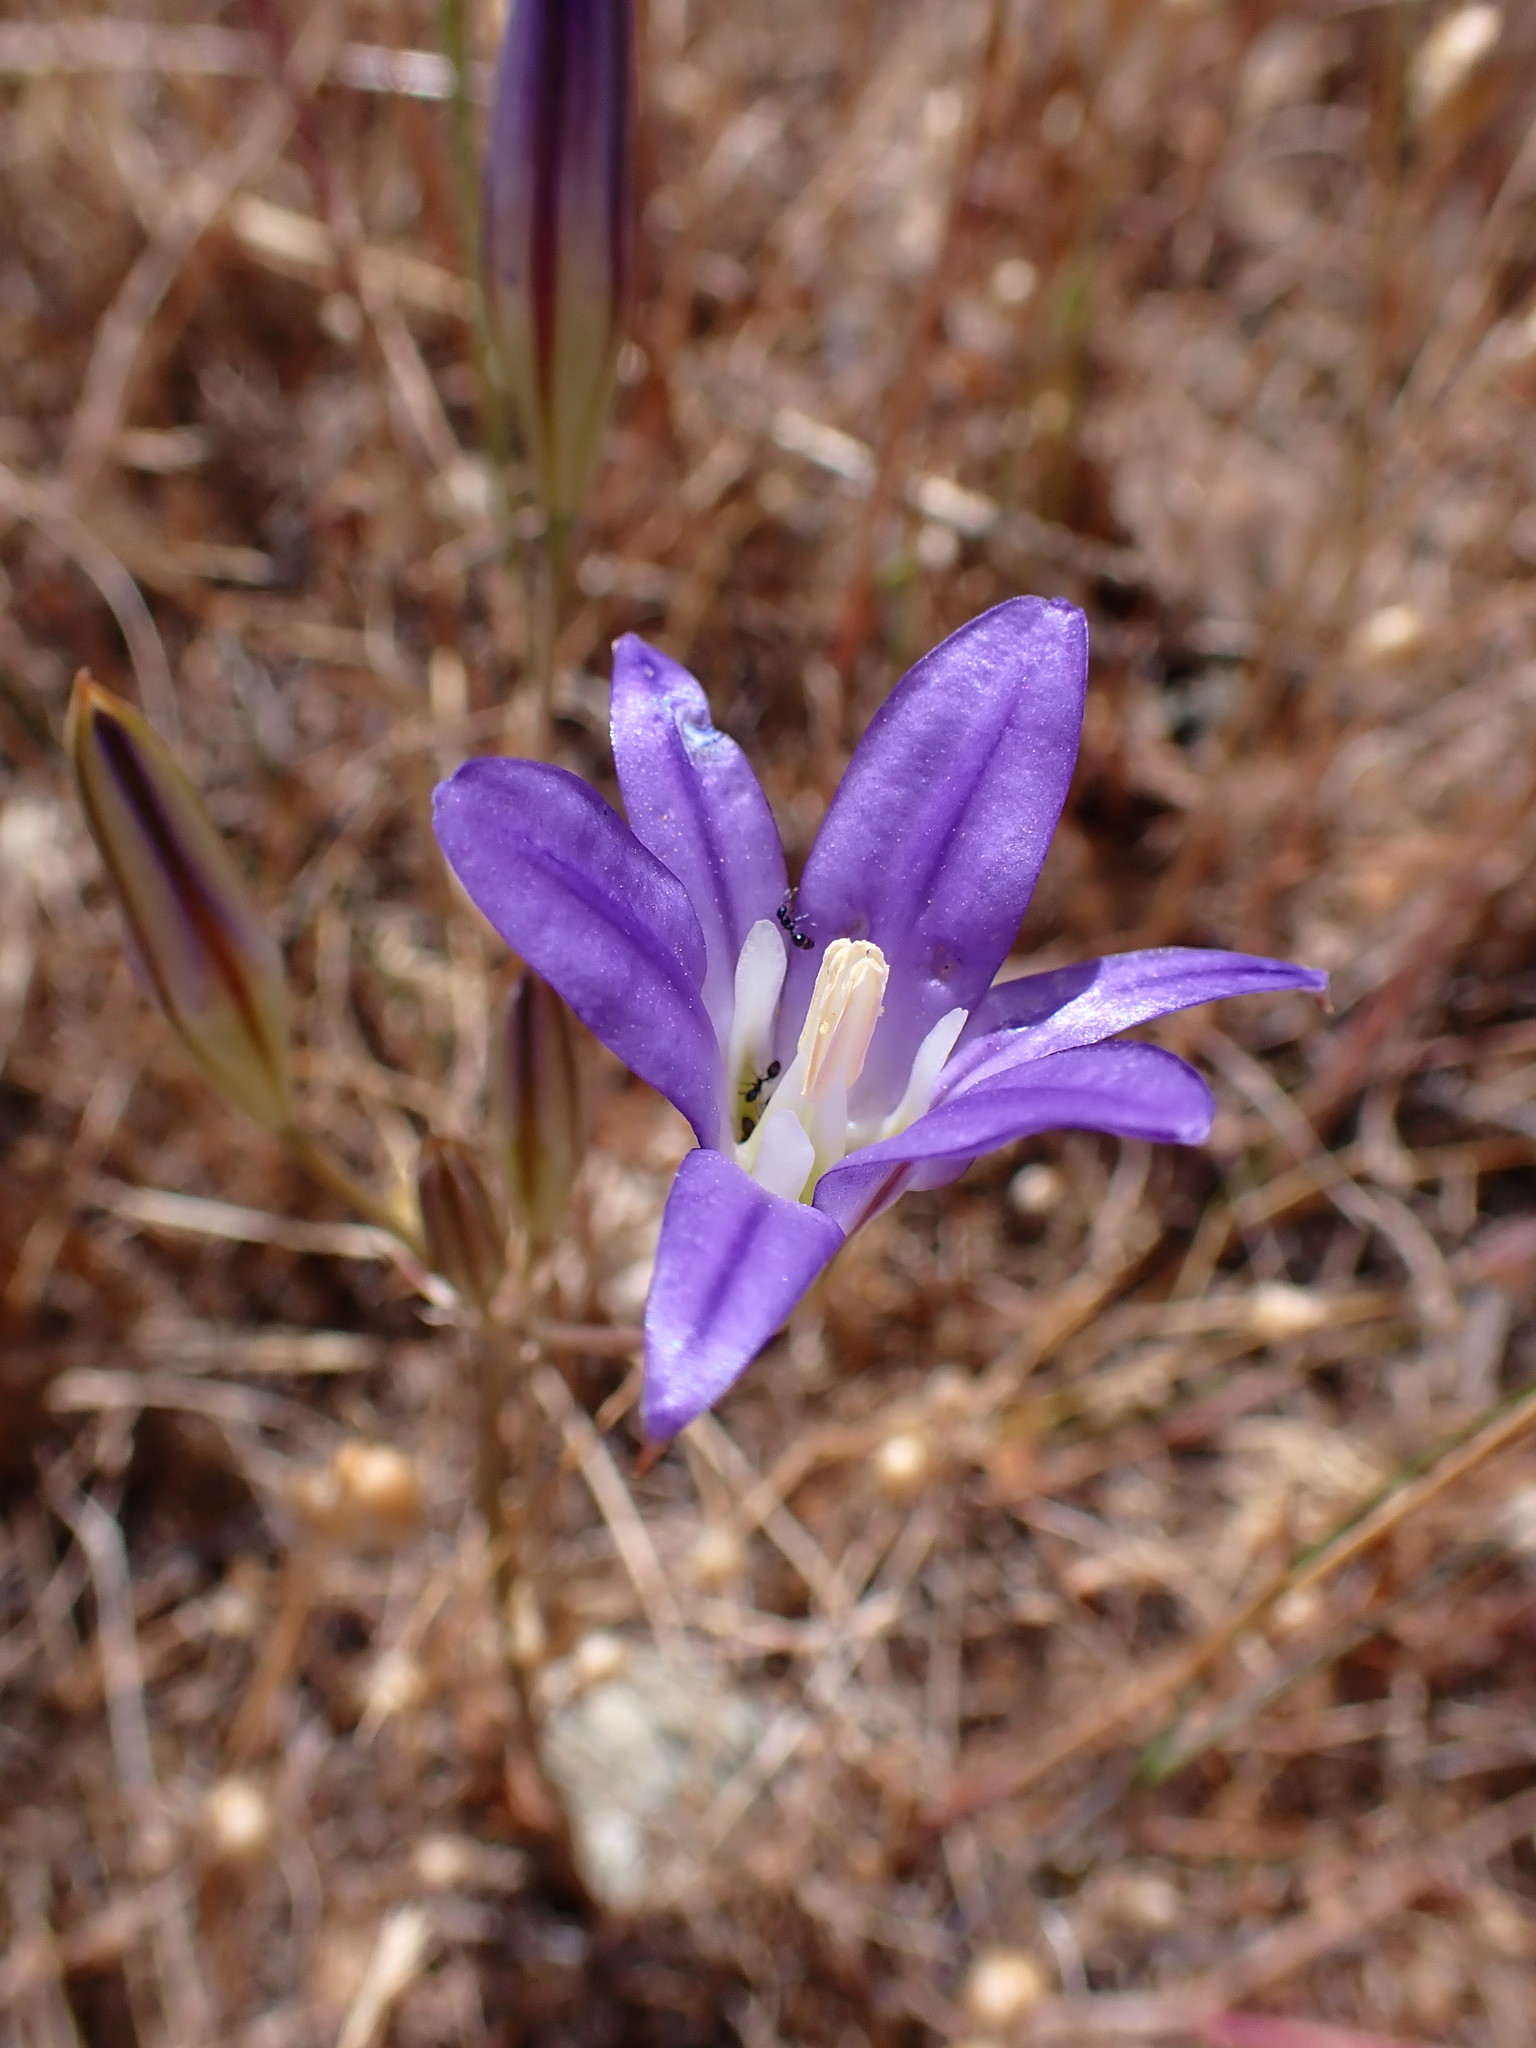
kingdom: Plantae
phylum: Tracheophyta
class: Liliopsida
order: Asparagales
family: Asparagaceae
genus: Brodiaea
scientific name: Brodiaea elegans
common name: Elegant cluster-lily
